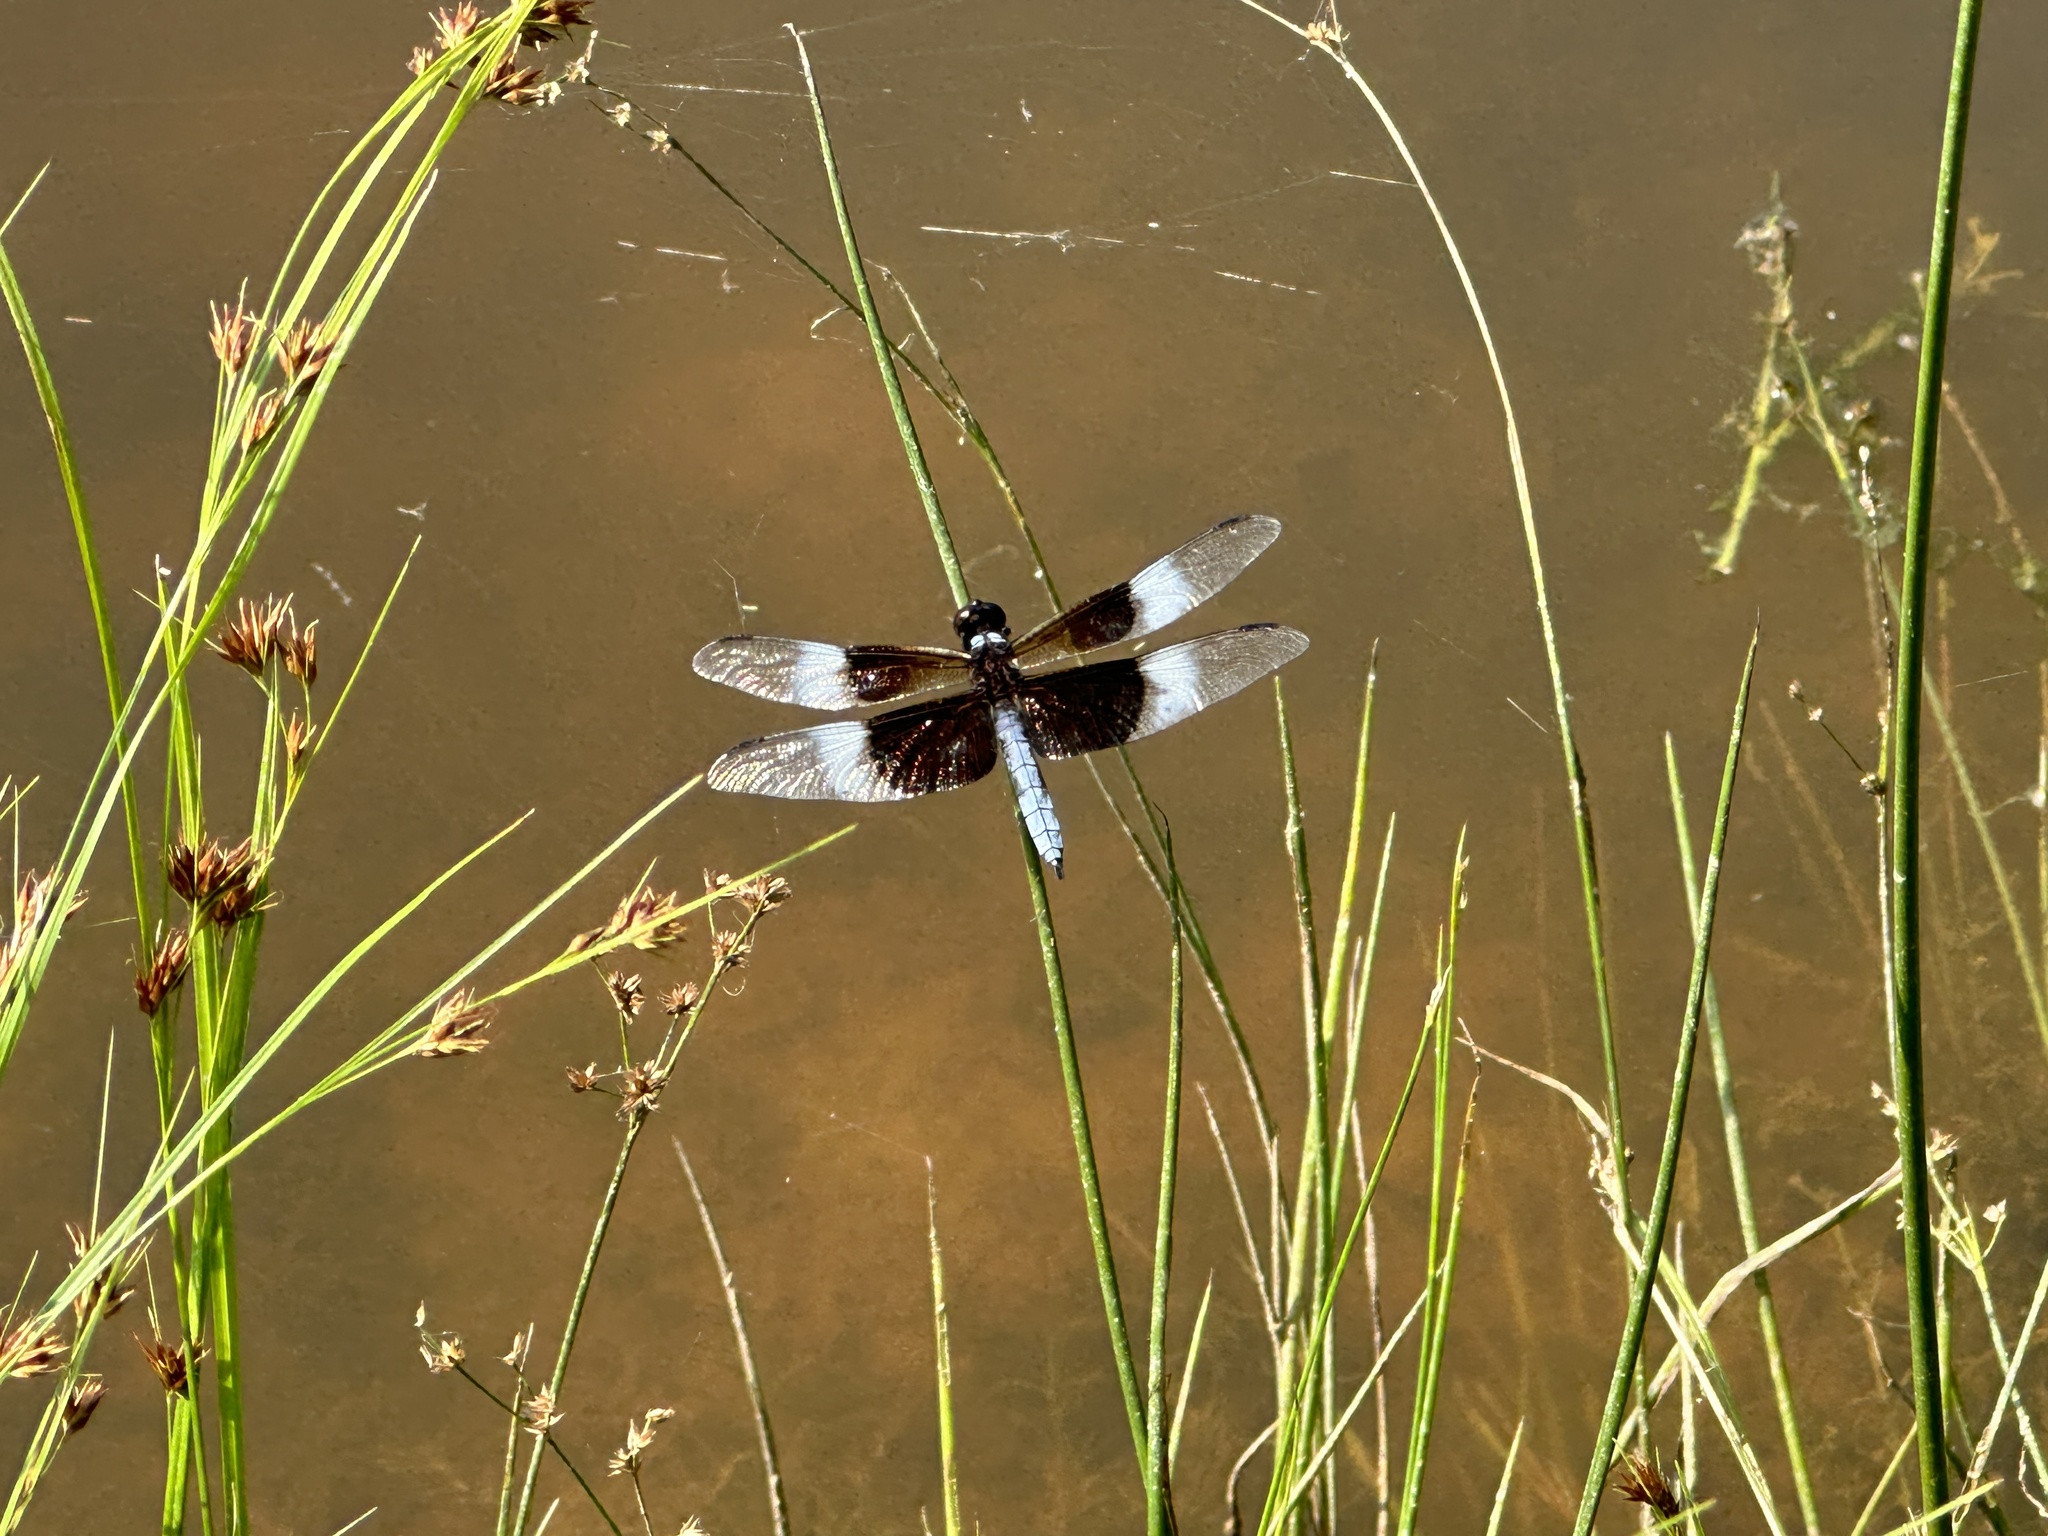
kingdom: Animalia
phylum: Arthropoda
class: Insecta
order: Odonata
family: Libellulidae
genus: Libellula
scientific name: Libellula luctuosa
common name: Widow skimmer
